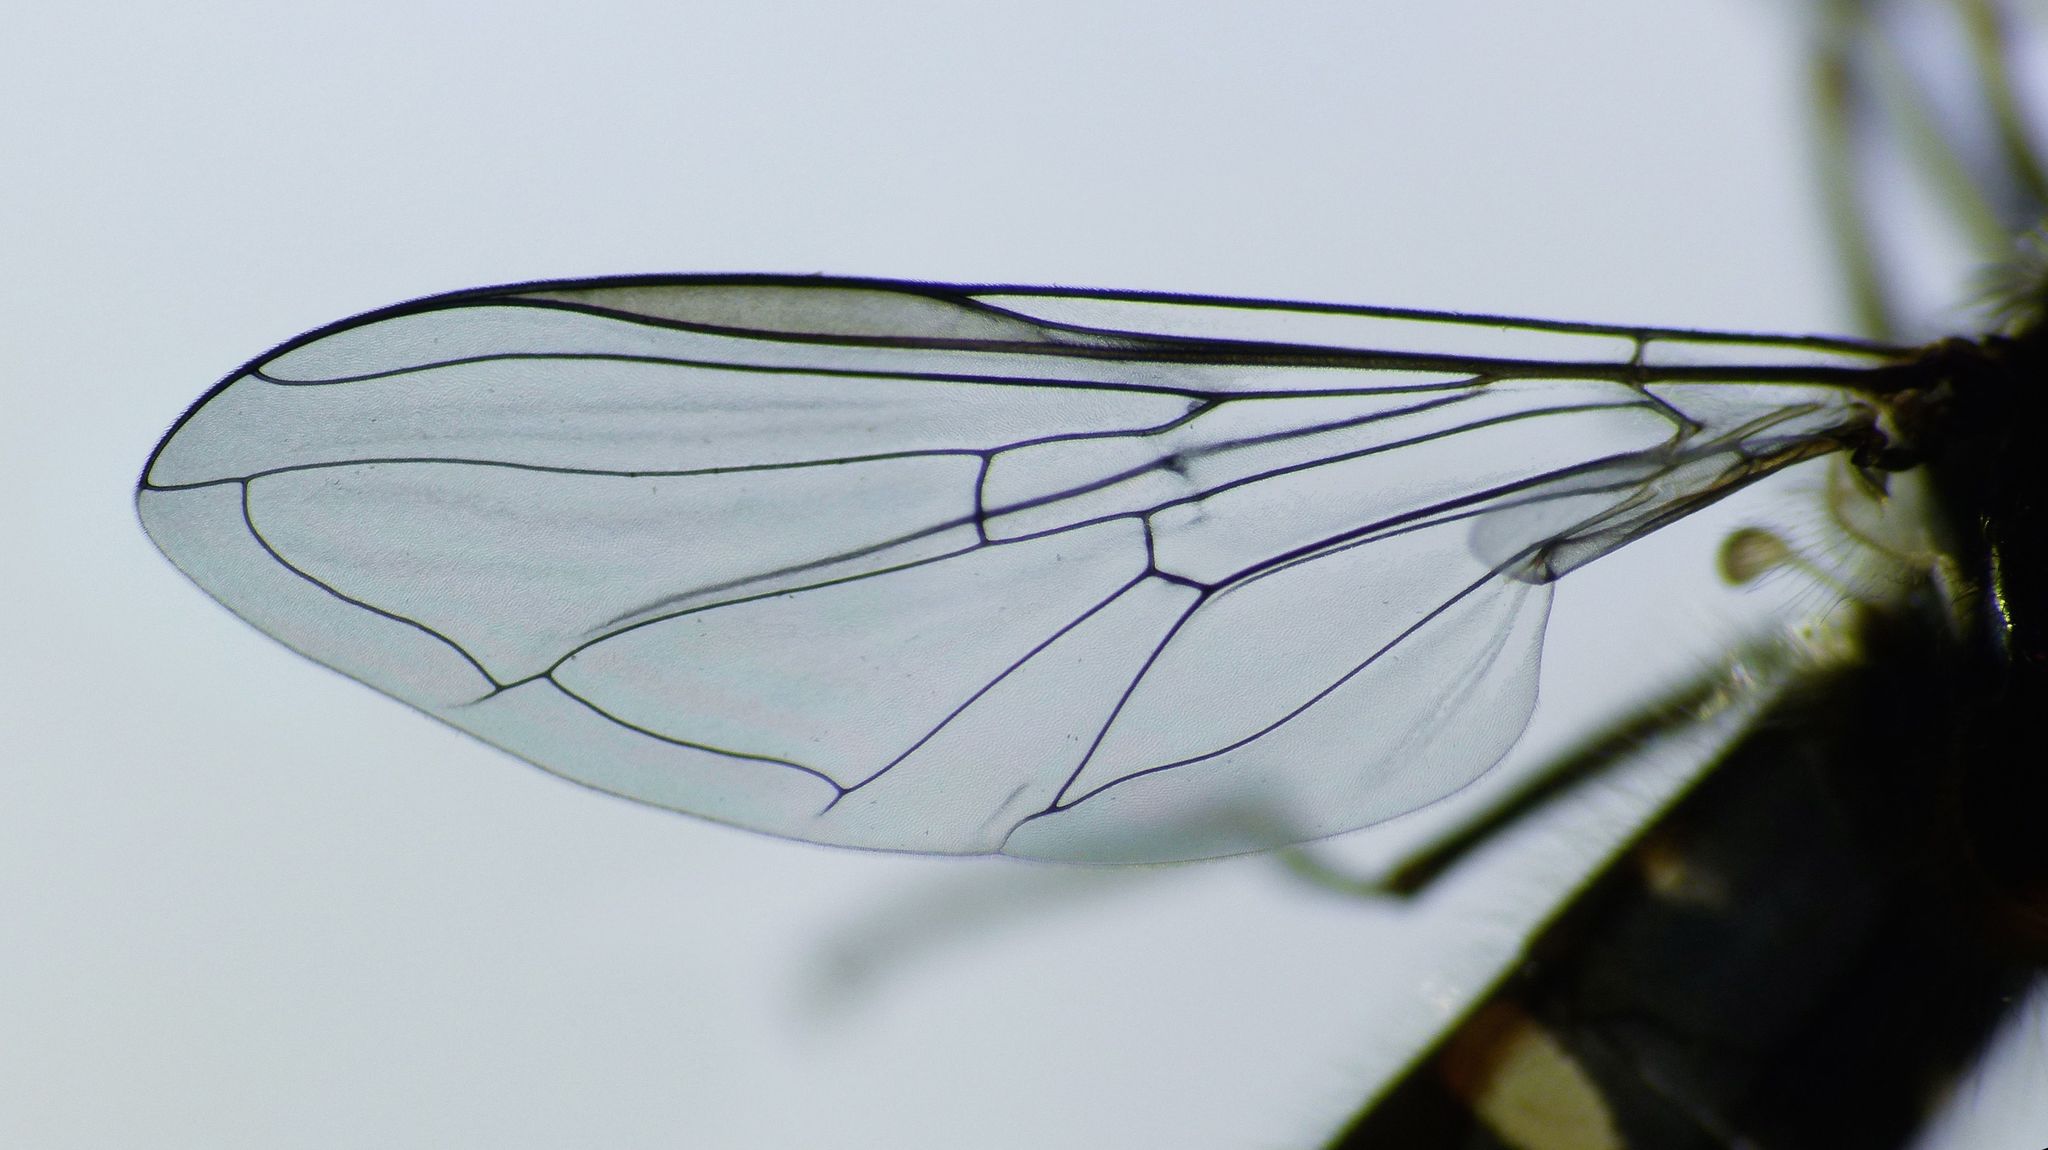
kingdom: Animalia
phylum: Arthropoda
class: Insecta
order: Diptera
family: Syrphidae
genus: Melangyna
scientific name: Melangyna novaezelandiae
